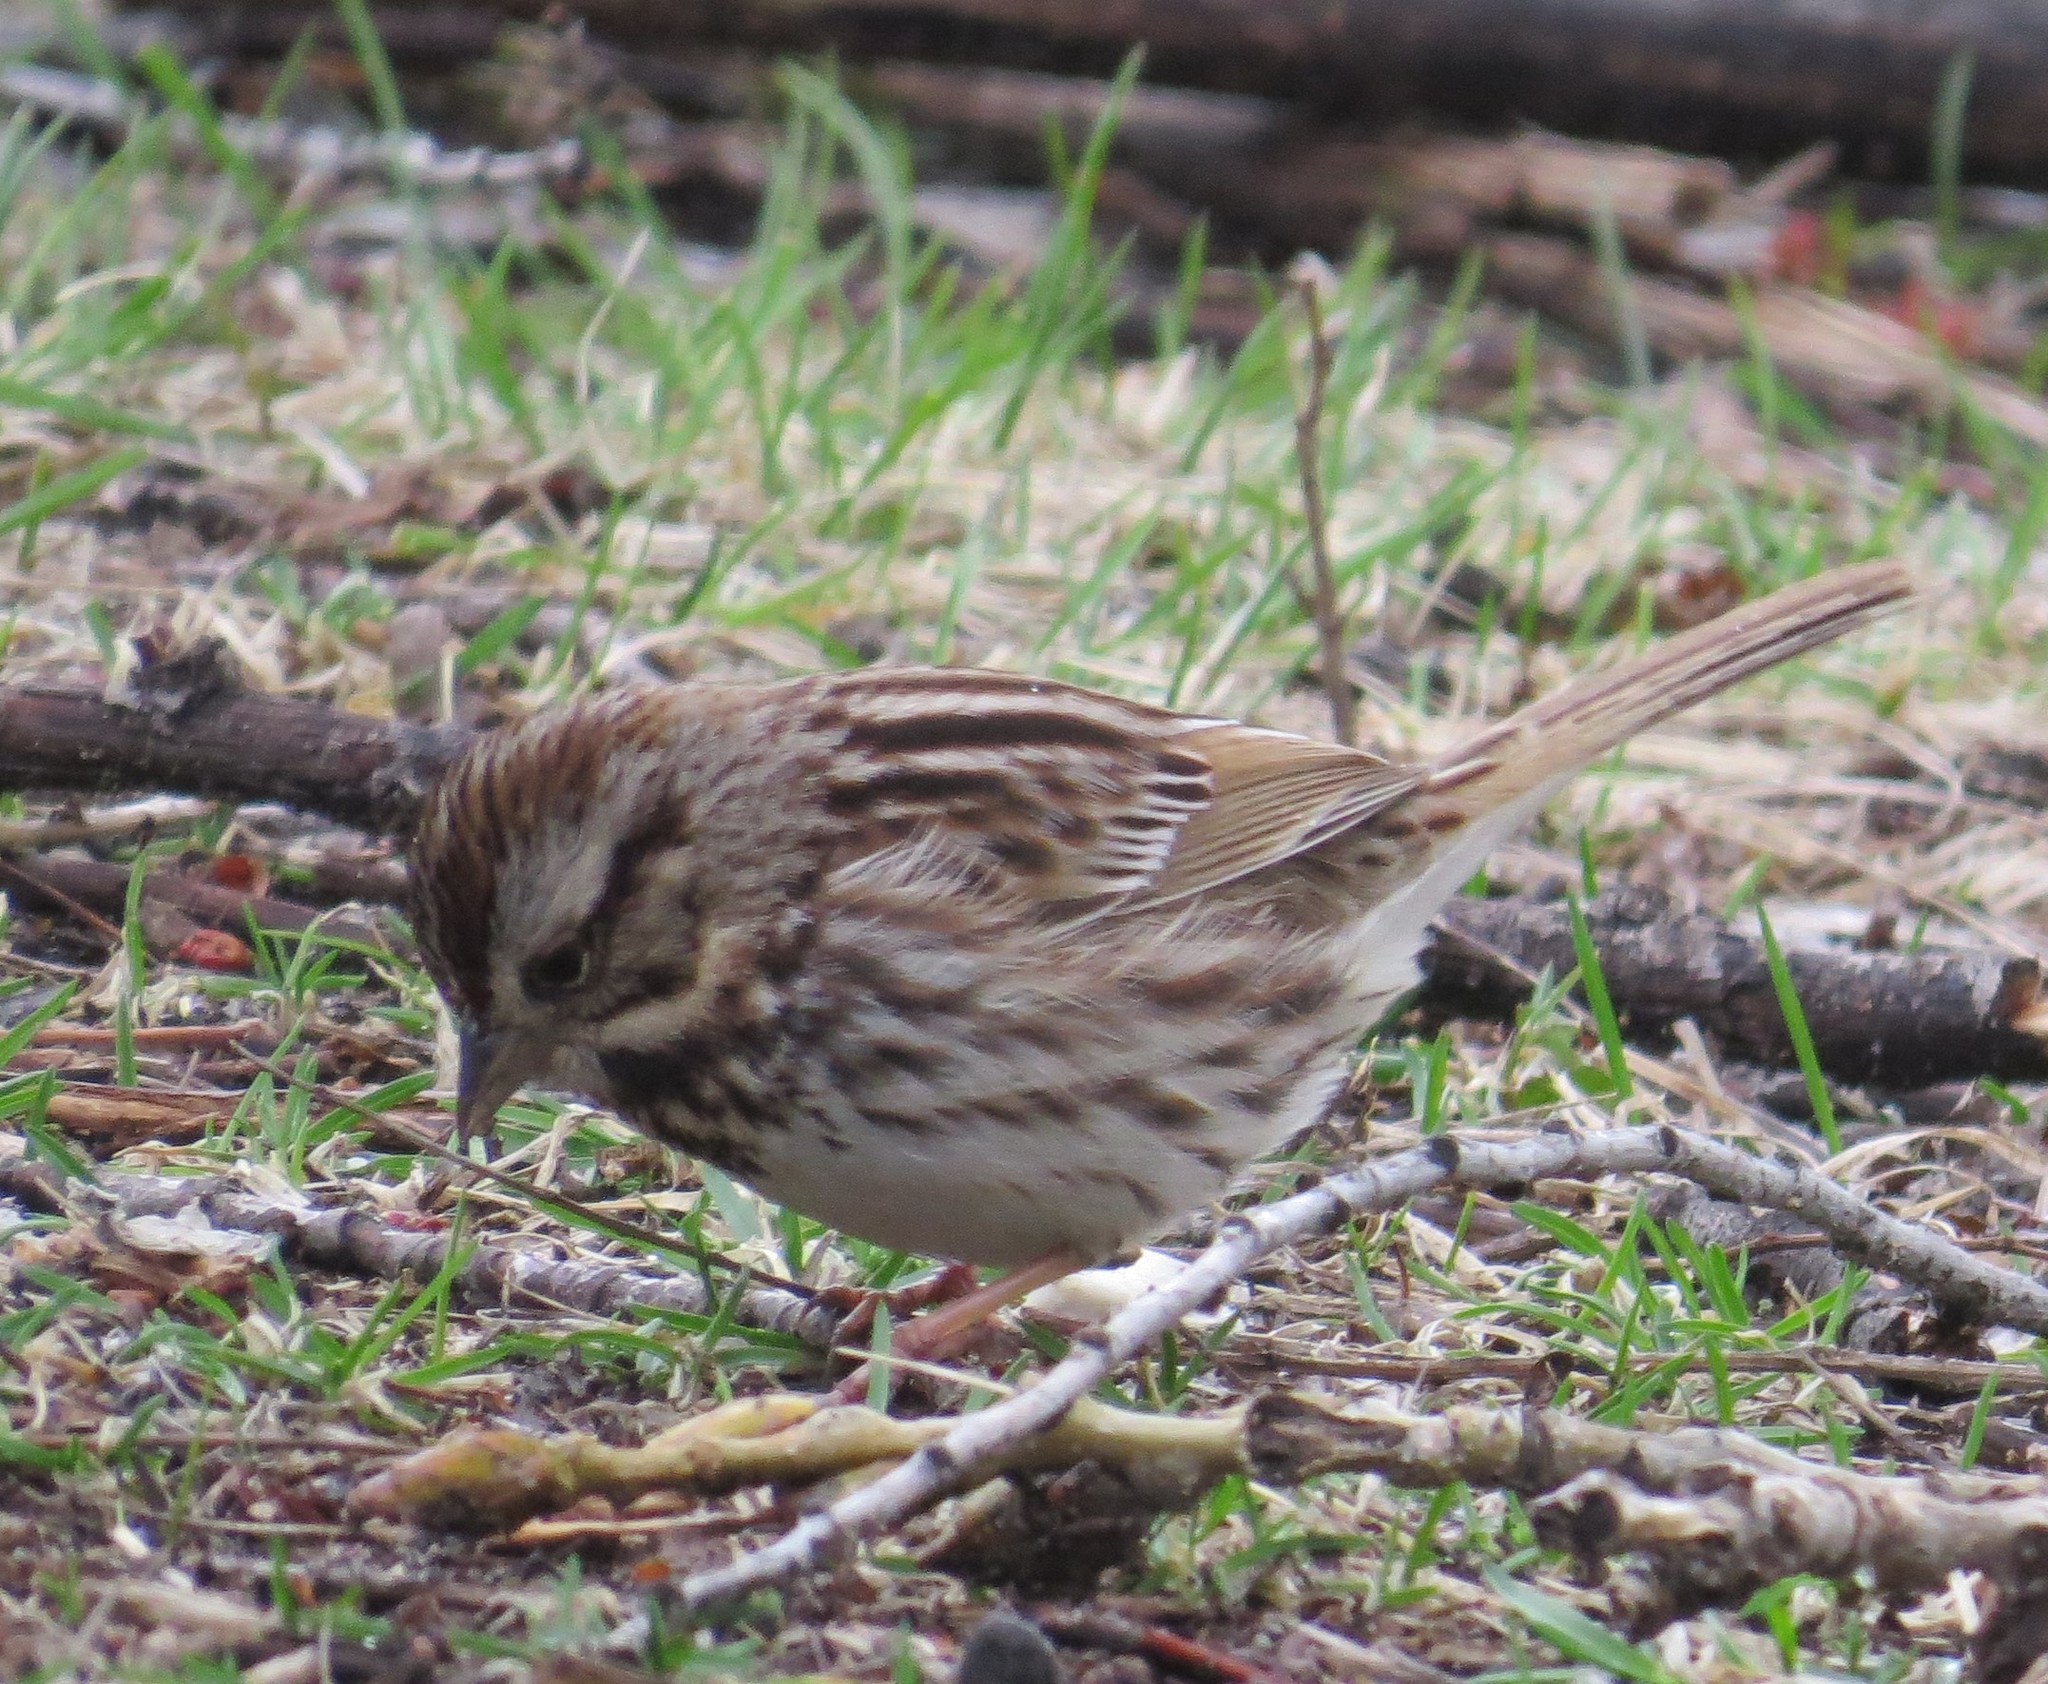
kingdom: Animalia
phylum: Chordata
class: Aves
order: Passeriformes
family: Passerellidae
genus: Melospiza
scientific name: Melospiza melodia
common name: Song sparrow
